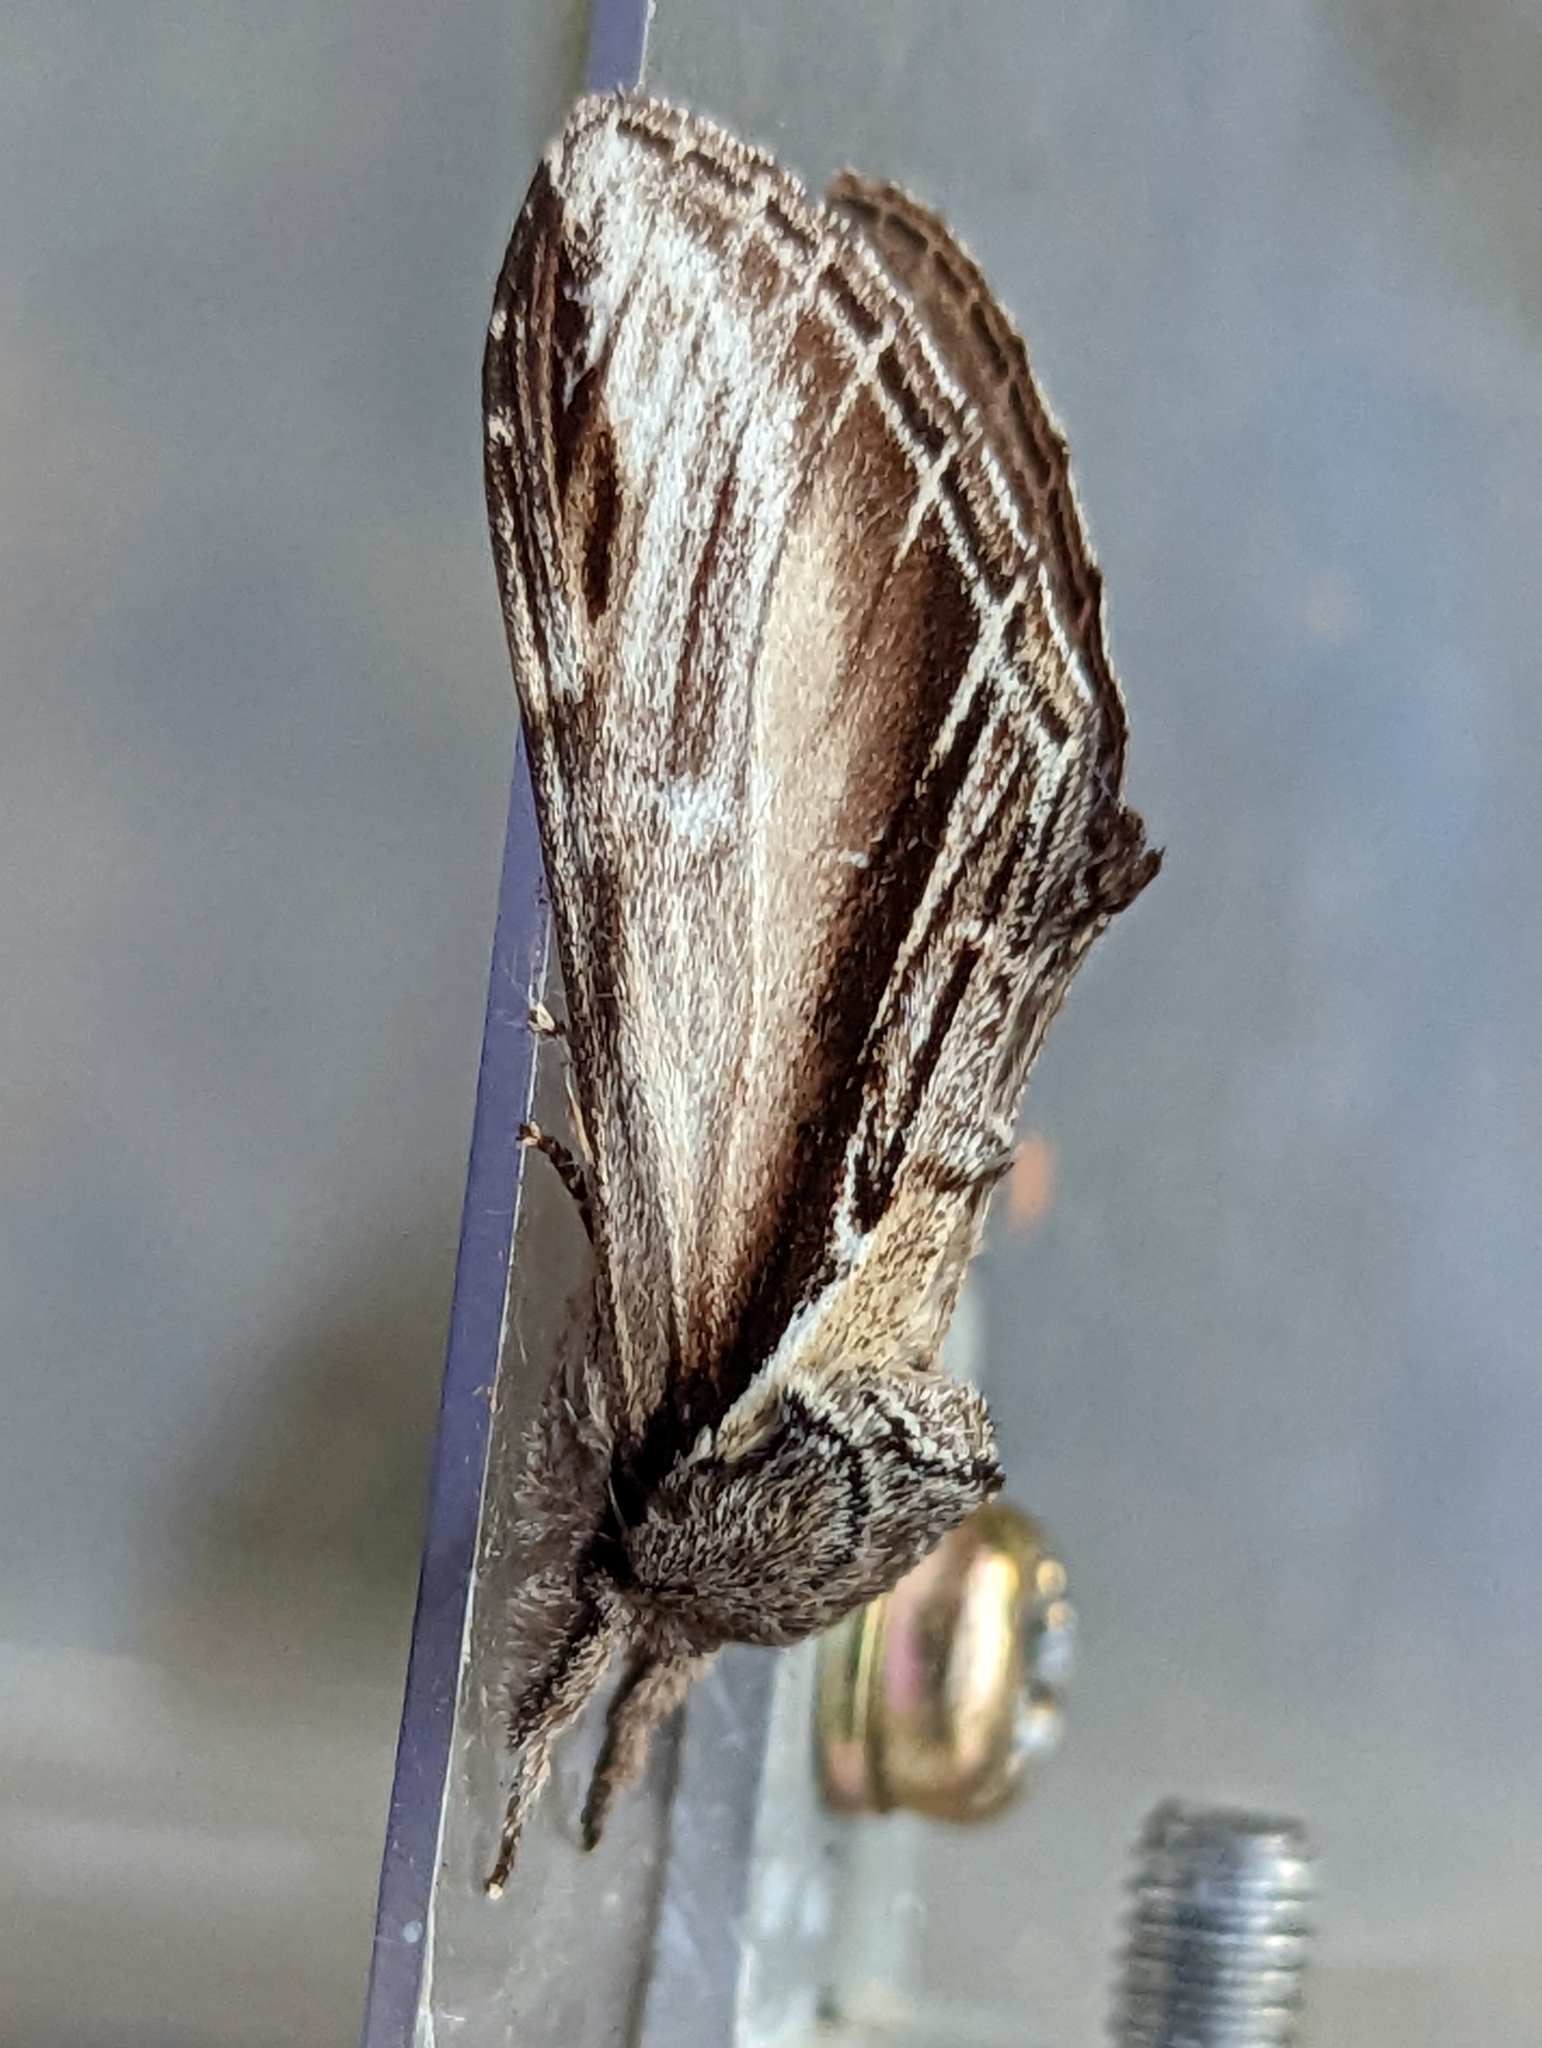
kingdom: Animalia
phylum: Arthropoda
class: Insecta
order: Lepidoptera
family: Notodontidae
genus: Pheosia
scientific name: Pheosia tremula
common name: Swallow prominent
